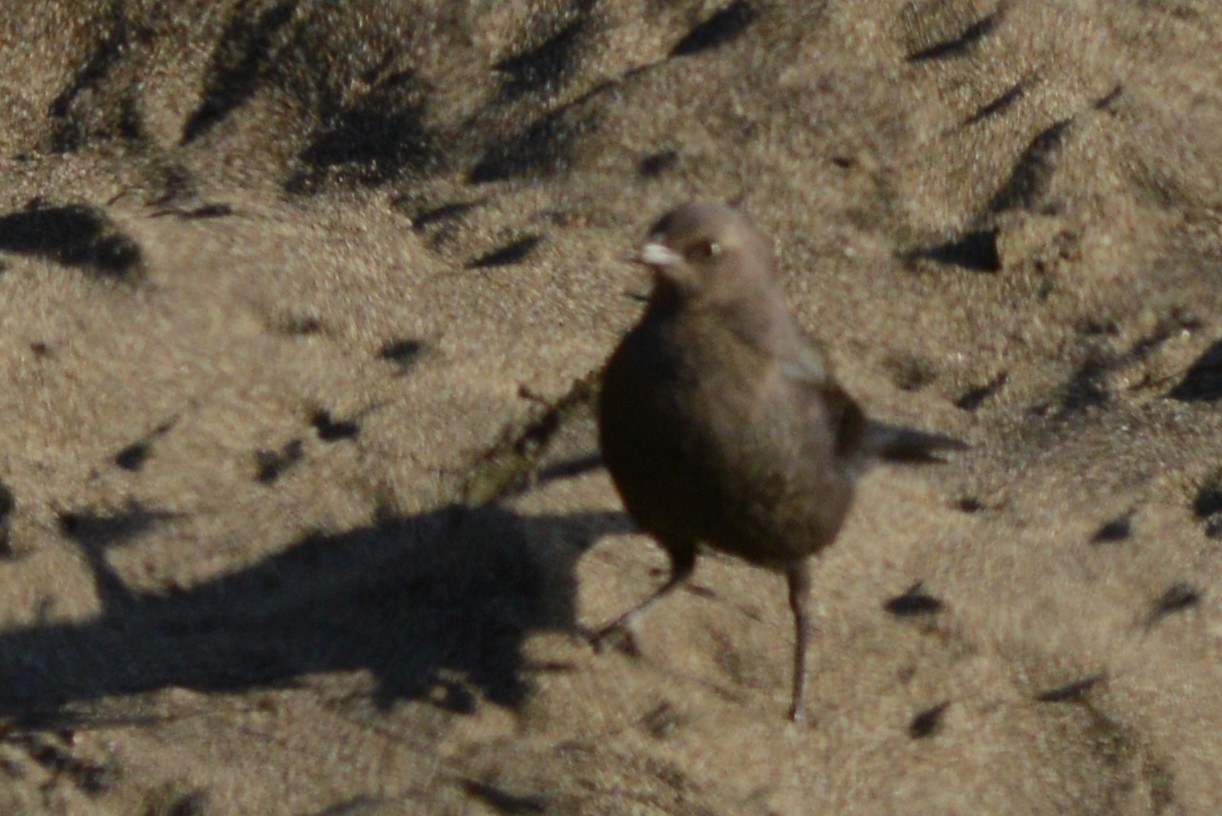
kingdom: Animalia
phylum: Chordata
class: Aves
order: Passeriformes
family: Icteridae
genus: Euphagus
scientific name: Euphagus cyanocephalus
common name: Brewer's blackbird
